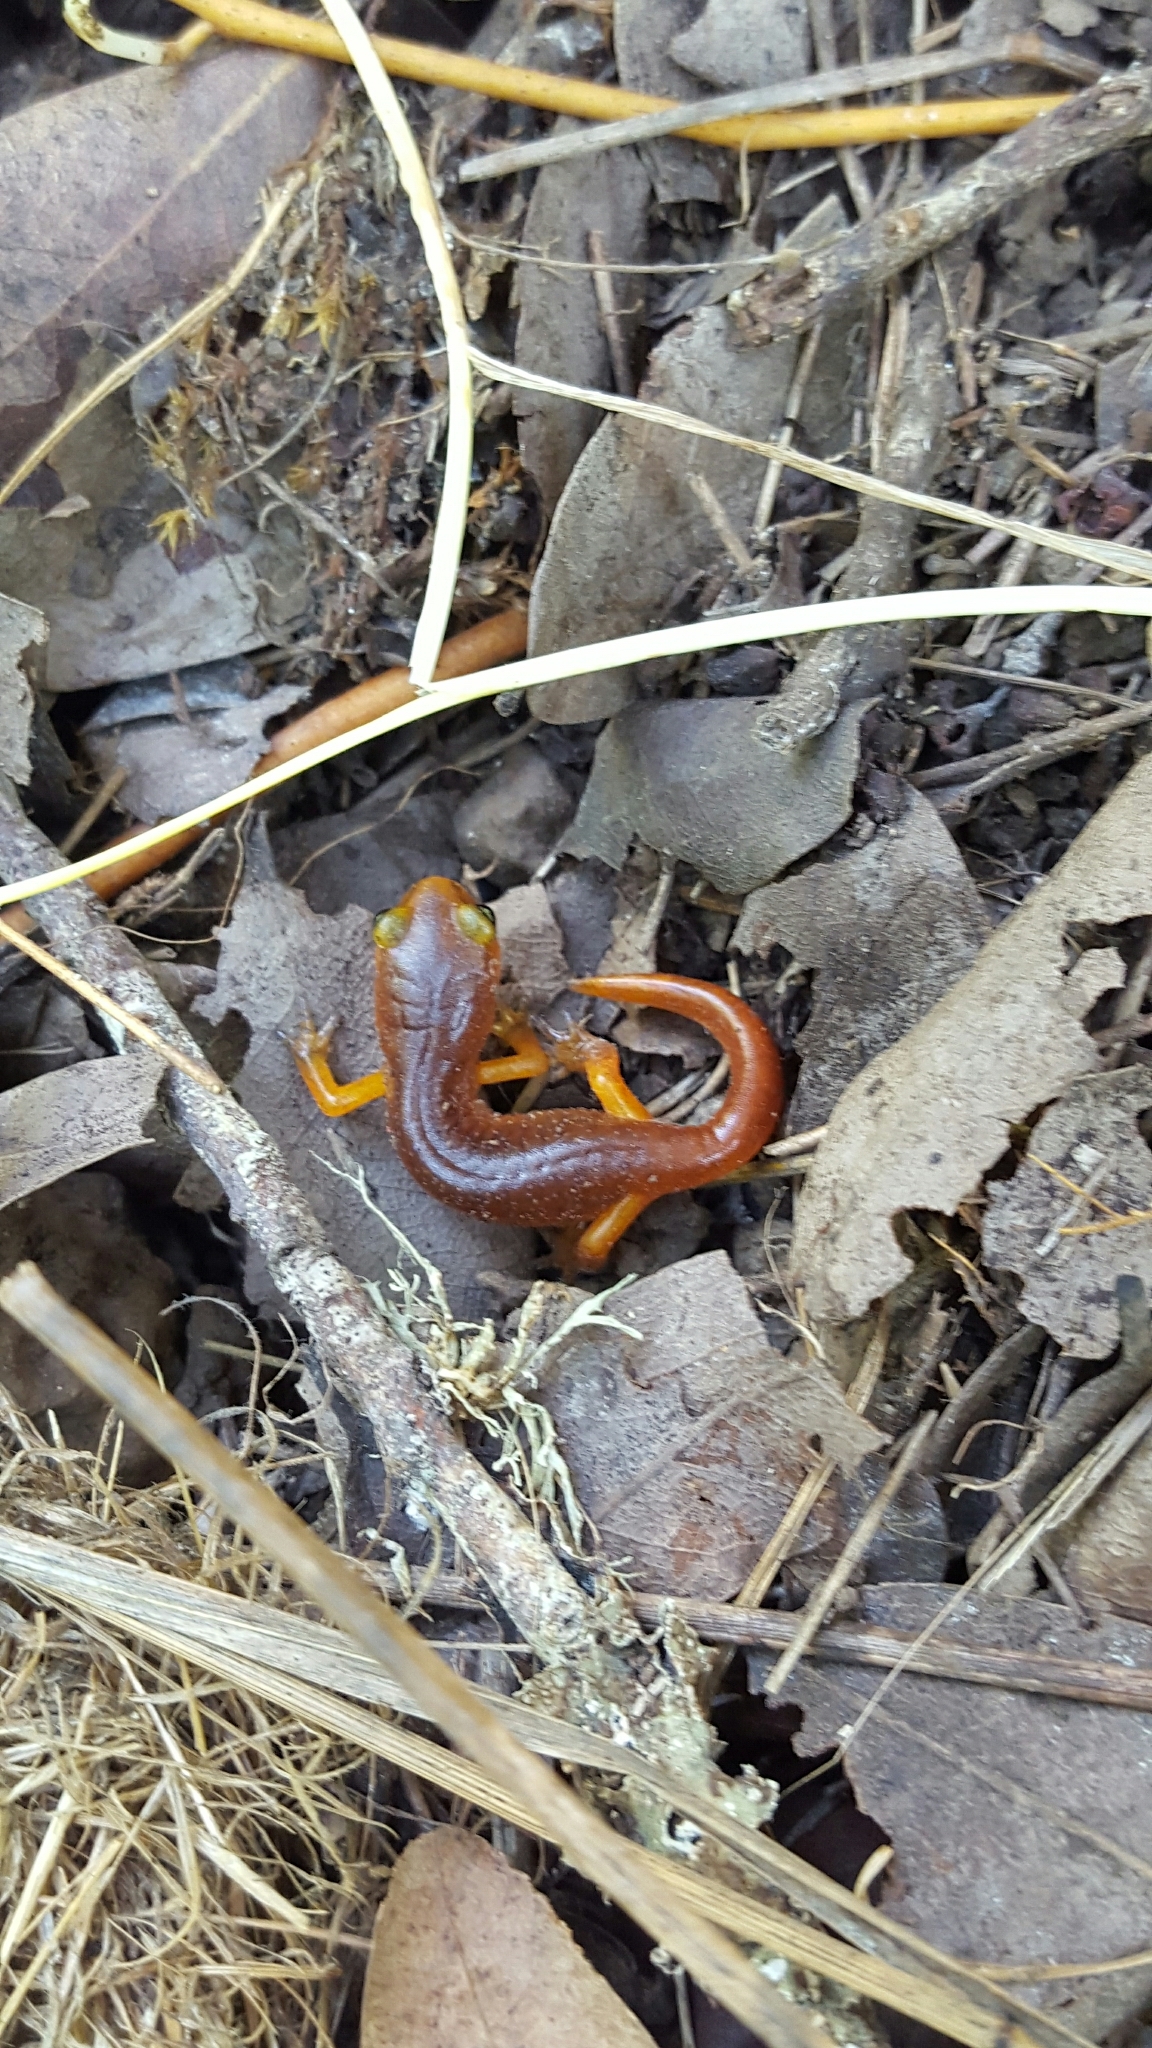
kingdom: Animalia
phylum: Chordata
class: Amphibia
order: Caudata
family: Plethodontidae
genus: Ensatina
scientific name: Ensatina eschscholtzii
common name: Ensatina
